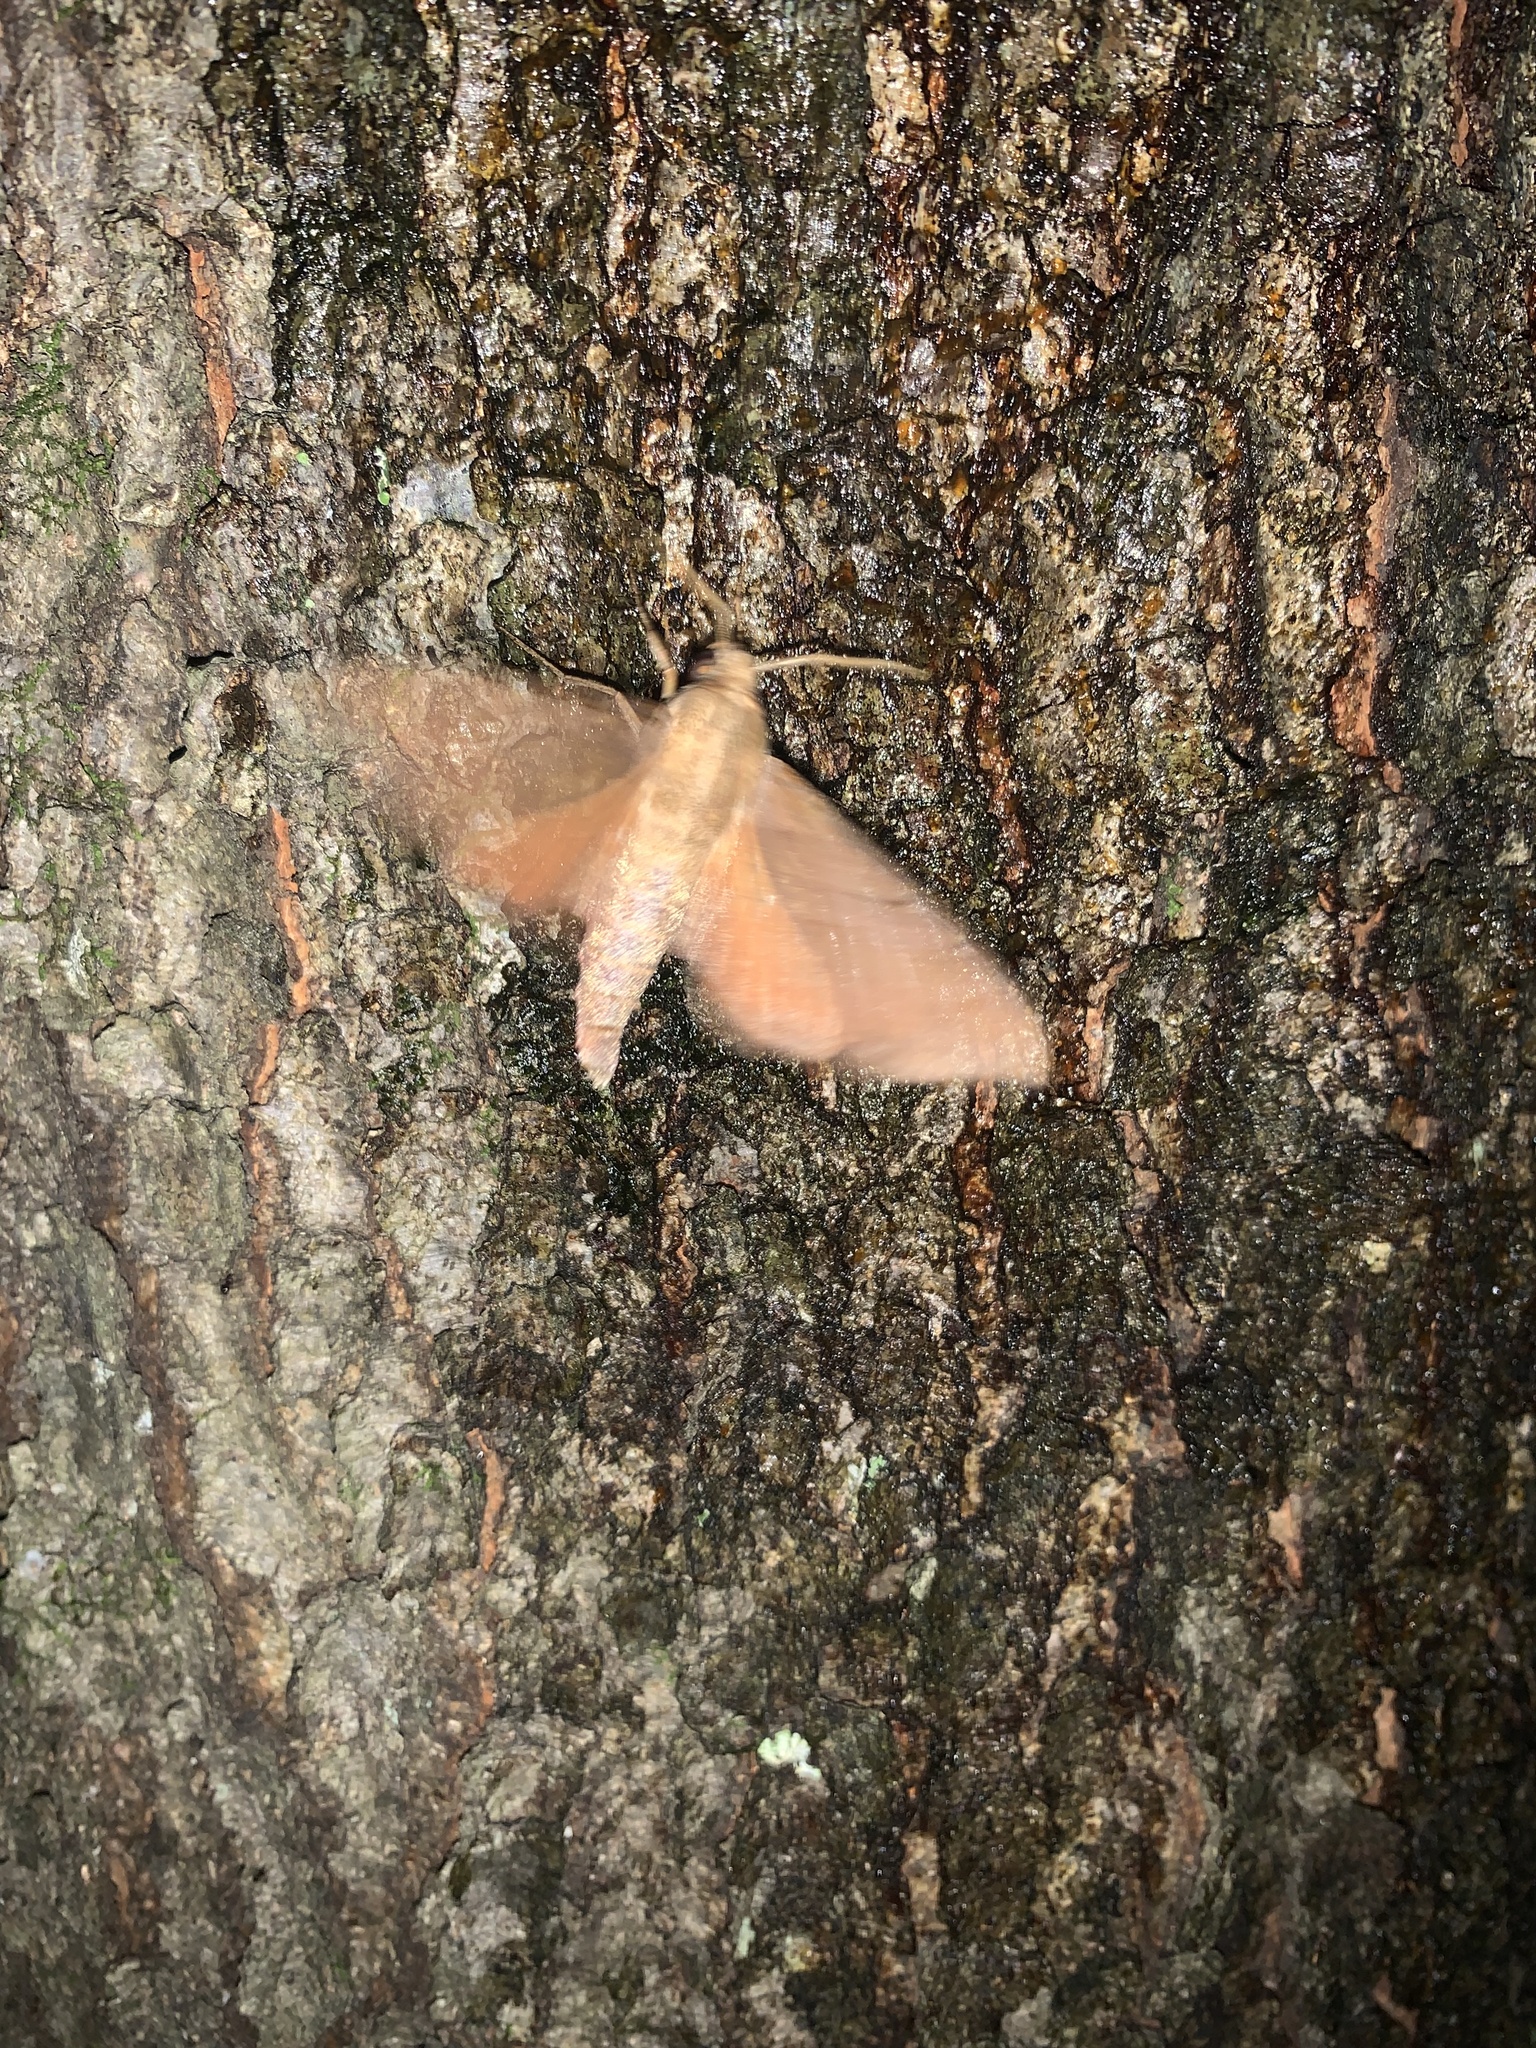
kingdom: Animalia
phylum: Arthropoda
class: Insecta
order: Lepidoptera
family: Sphingidae
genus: Darapsa
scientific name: Darapsa myron
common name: Hog sphinx
